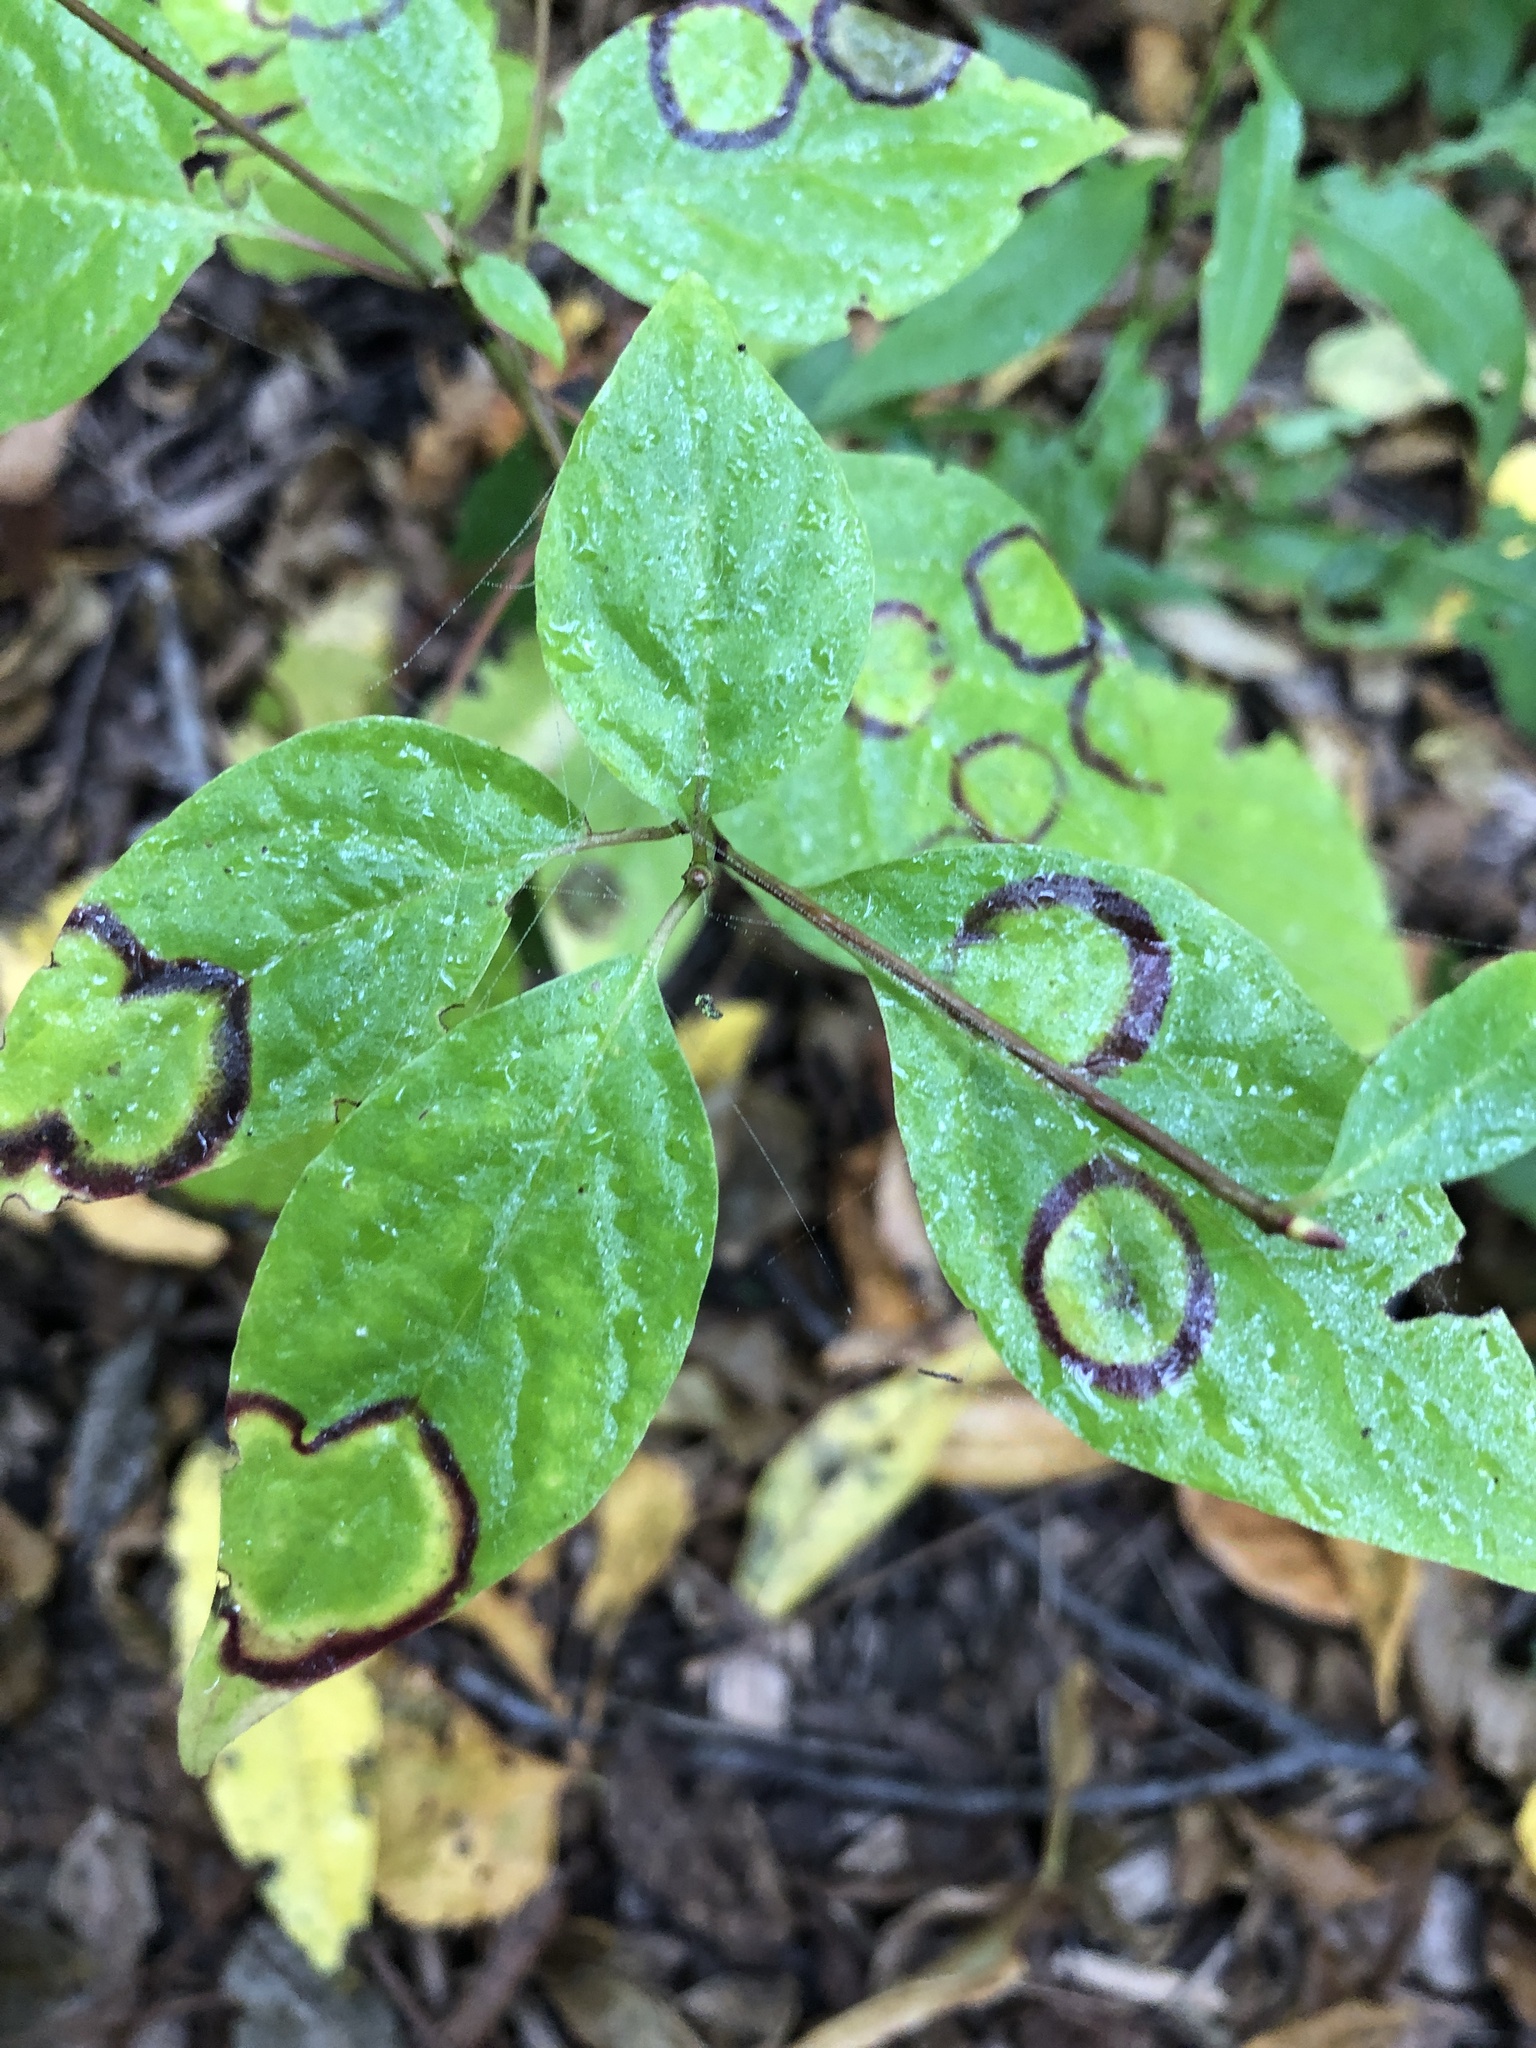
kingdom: Animalia
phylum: Arthropoda
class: Insecta
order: Diptera
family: Cecidomyiidae
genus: Parallelodiplosis
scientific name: Parallelodiplosis subtruncata
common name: Dogwood eyespot gall midge
